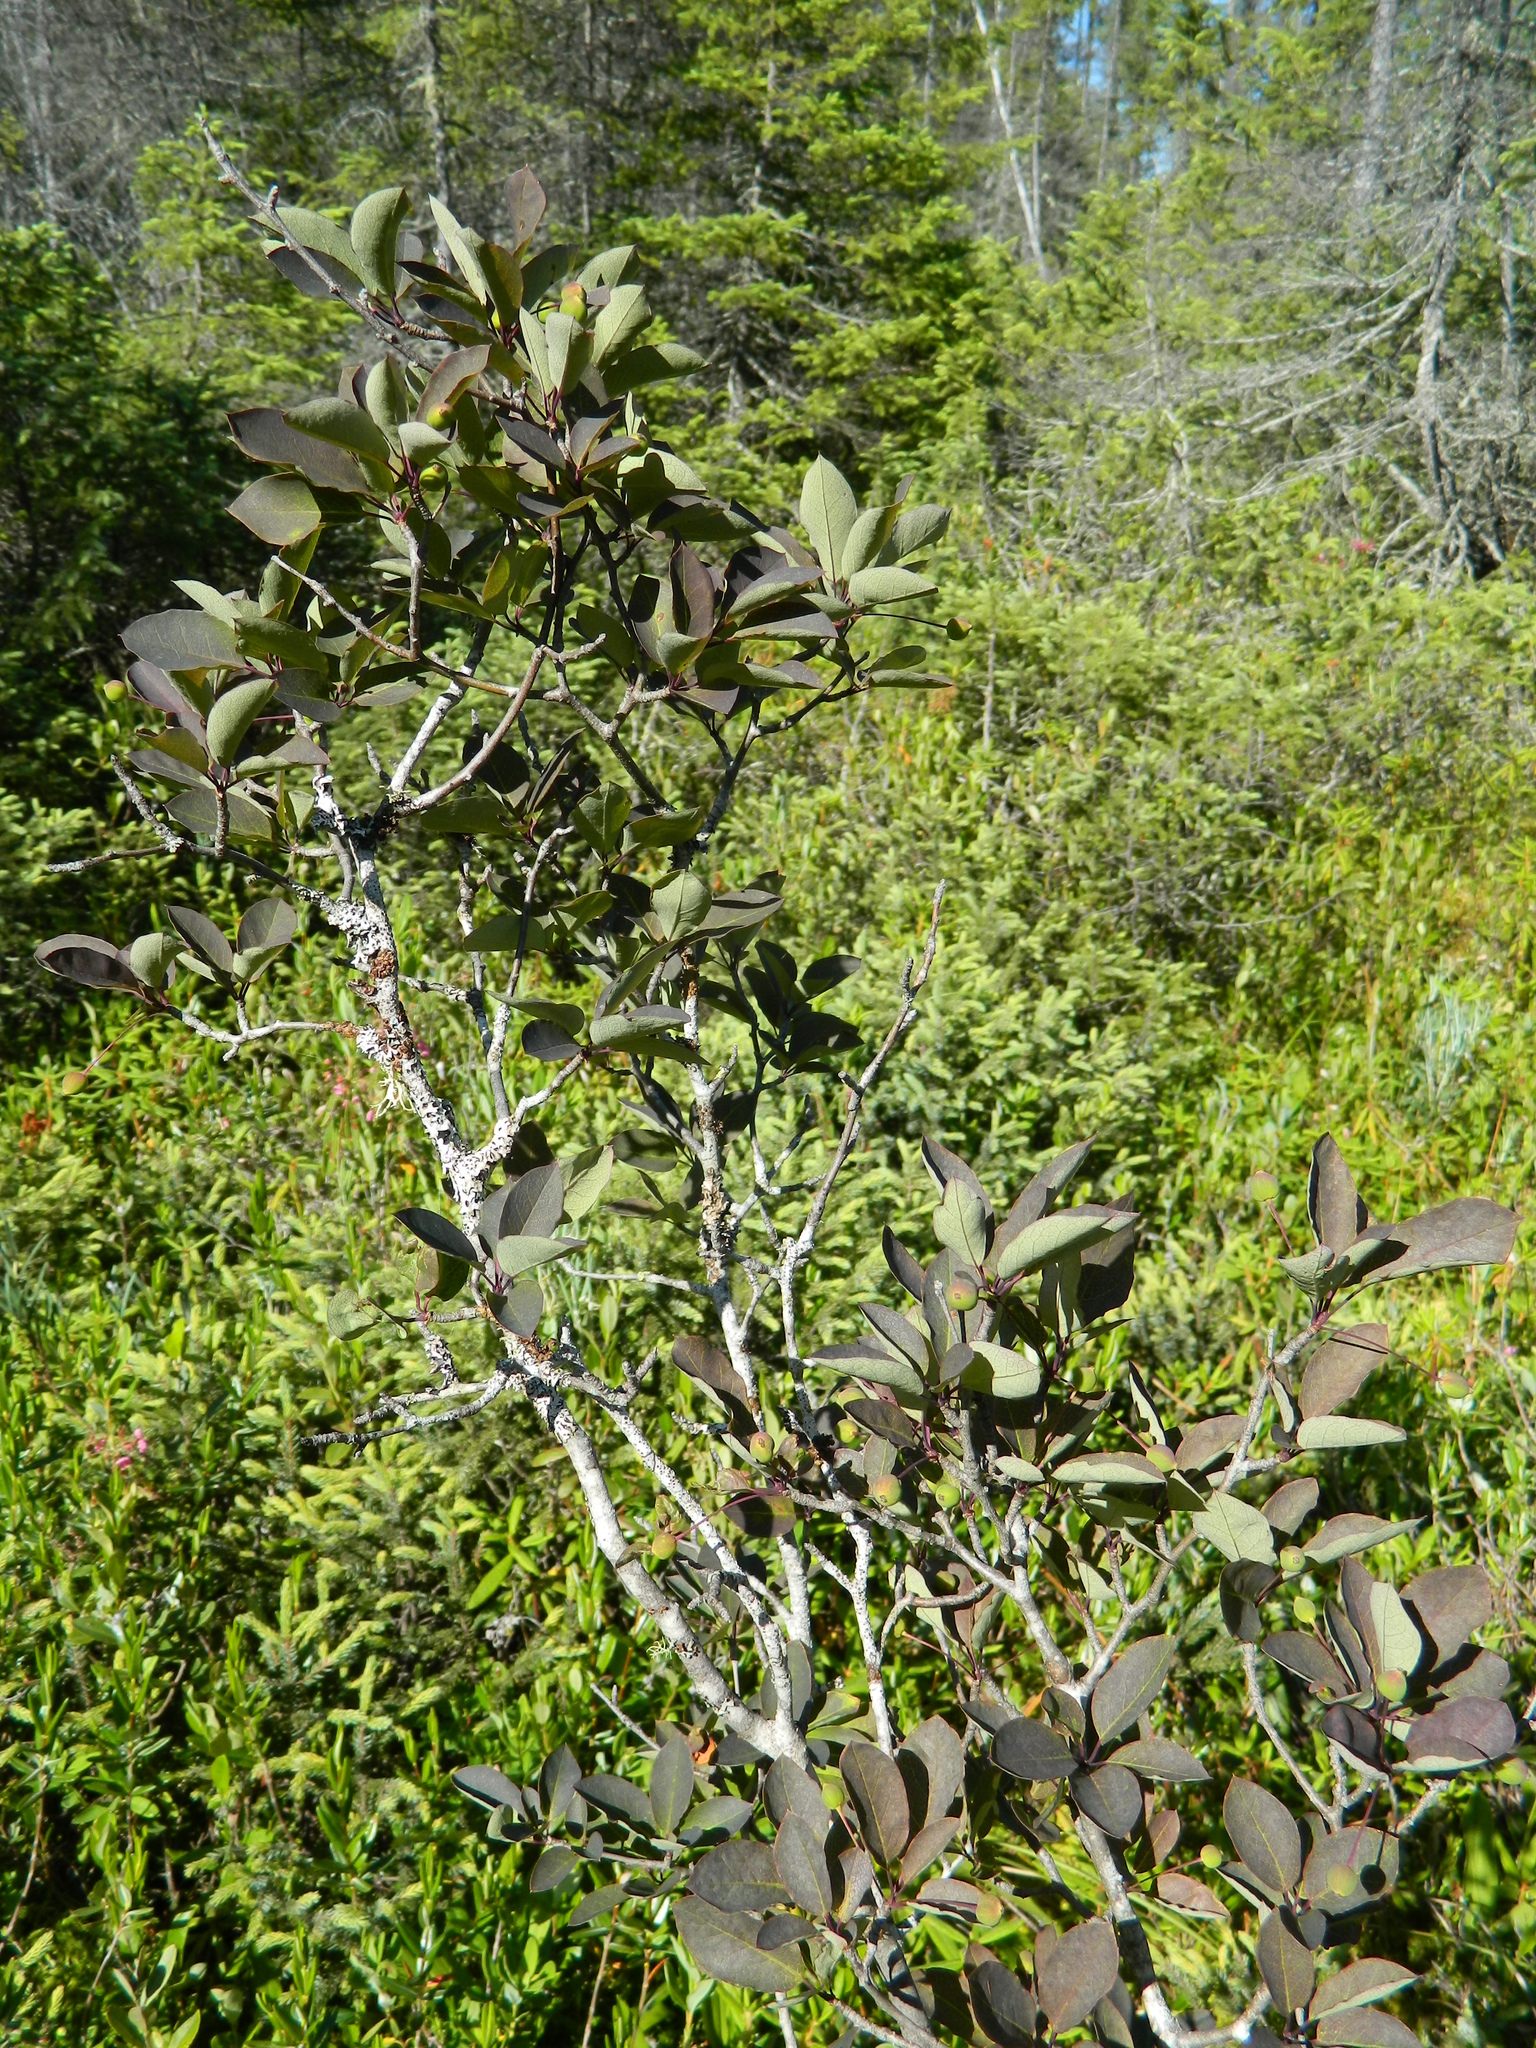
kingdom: Plantae
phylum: Tracheophyta
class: Magnoliopsida
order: Aquifoliales
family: Aquifoliaceae
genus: Ilex
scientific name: Ilex mucronata
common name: Catberry
